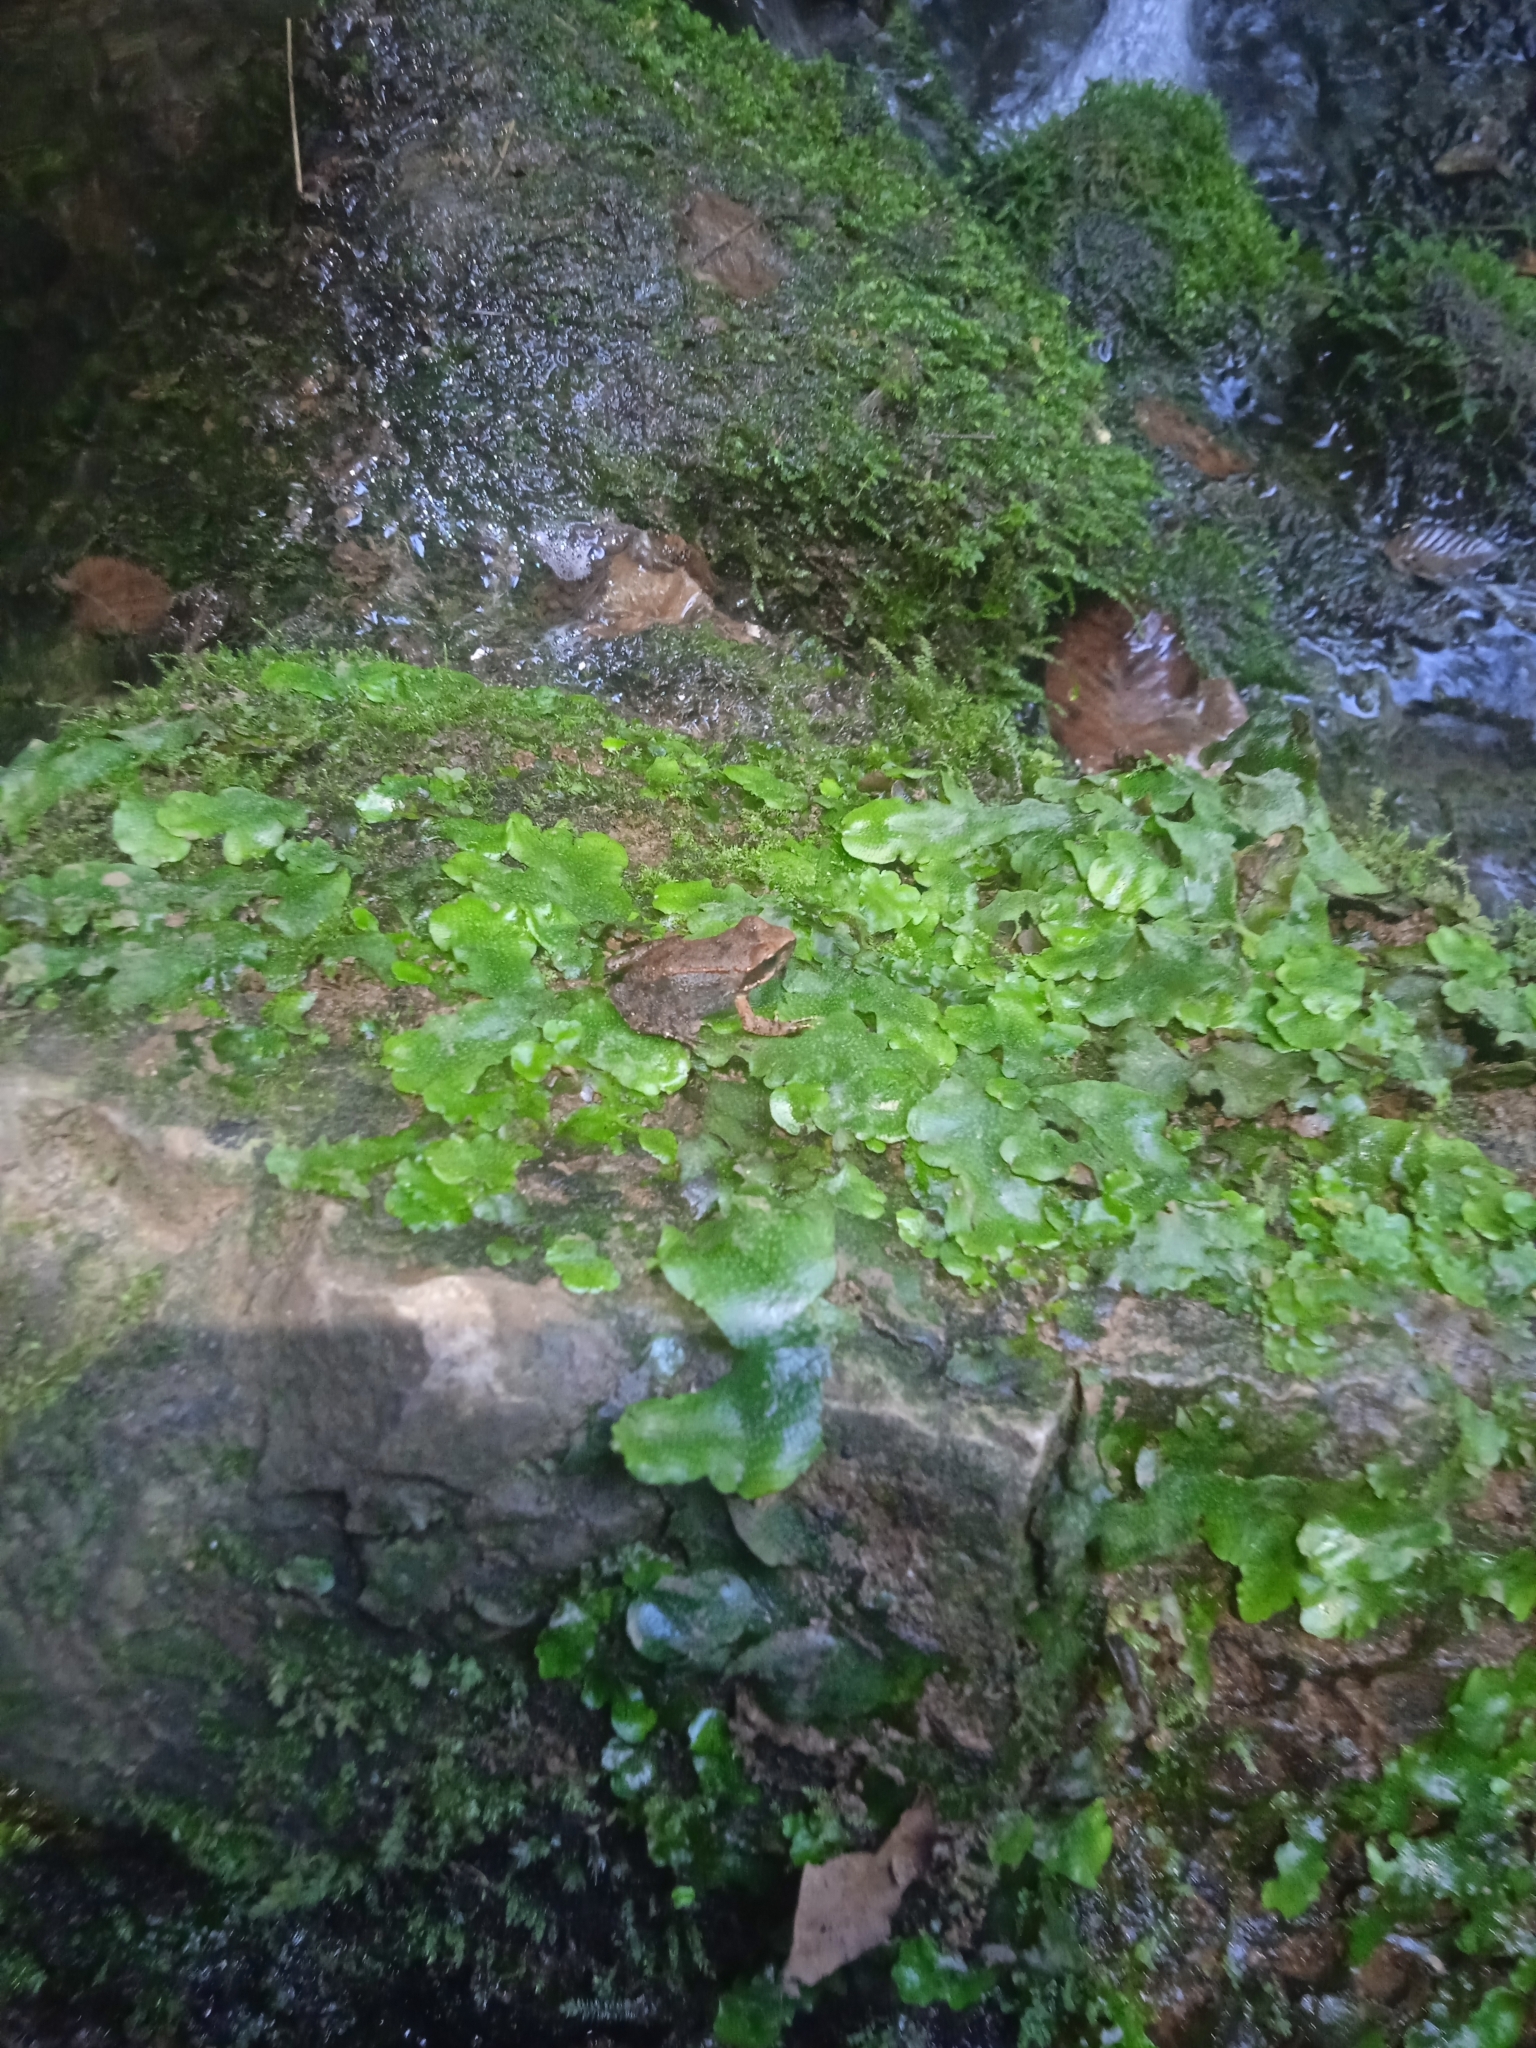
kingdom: Plantae
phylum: Marchantiophyta
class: Marchantiopsida
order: Marchantiales
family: Conocephalaceae
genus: Conocephalum
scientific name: Conocephalum conicum
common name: Great scented liverwort
